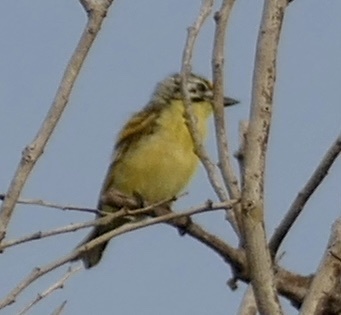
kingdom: Animalia
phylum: Chordata
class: Aves
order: Piciformes
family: Lybiidae
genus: Pogoniulus
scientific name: Pogoniulus chrysoconus
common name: Yellow-fronted tinkerbird
